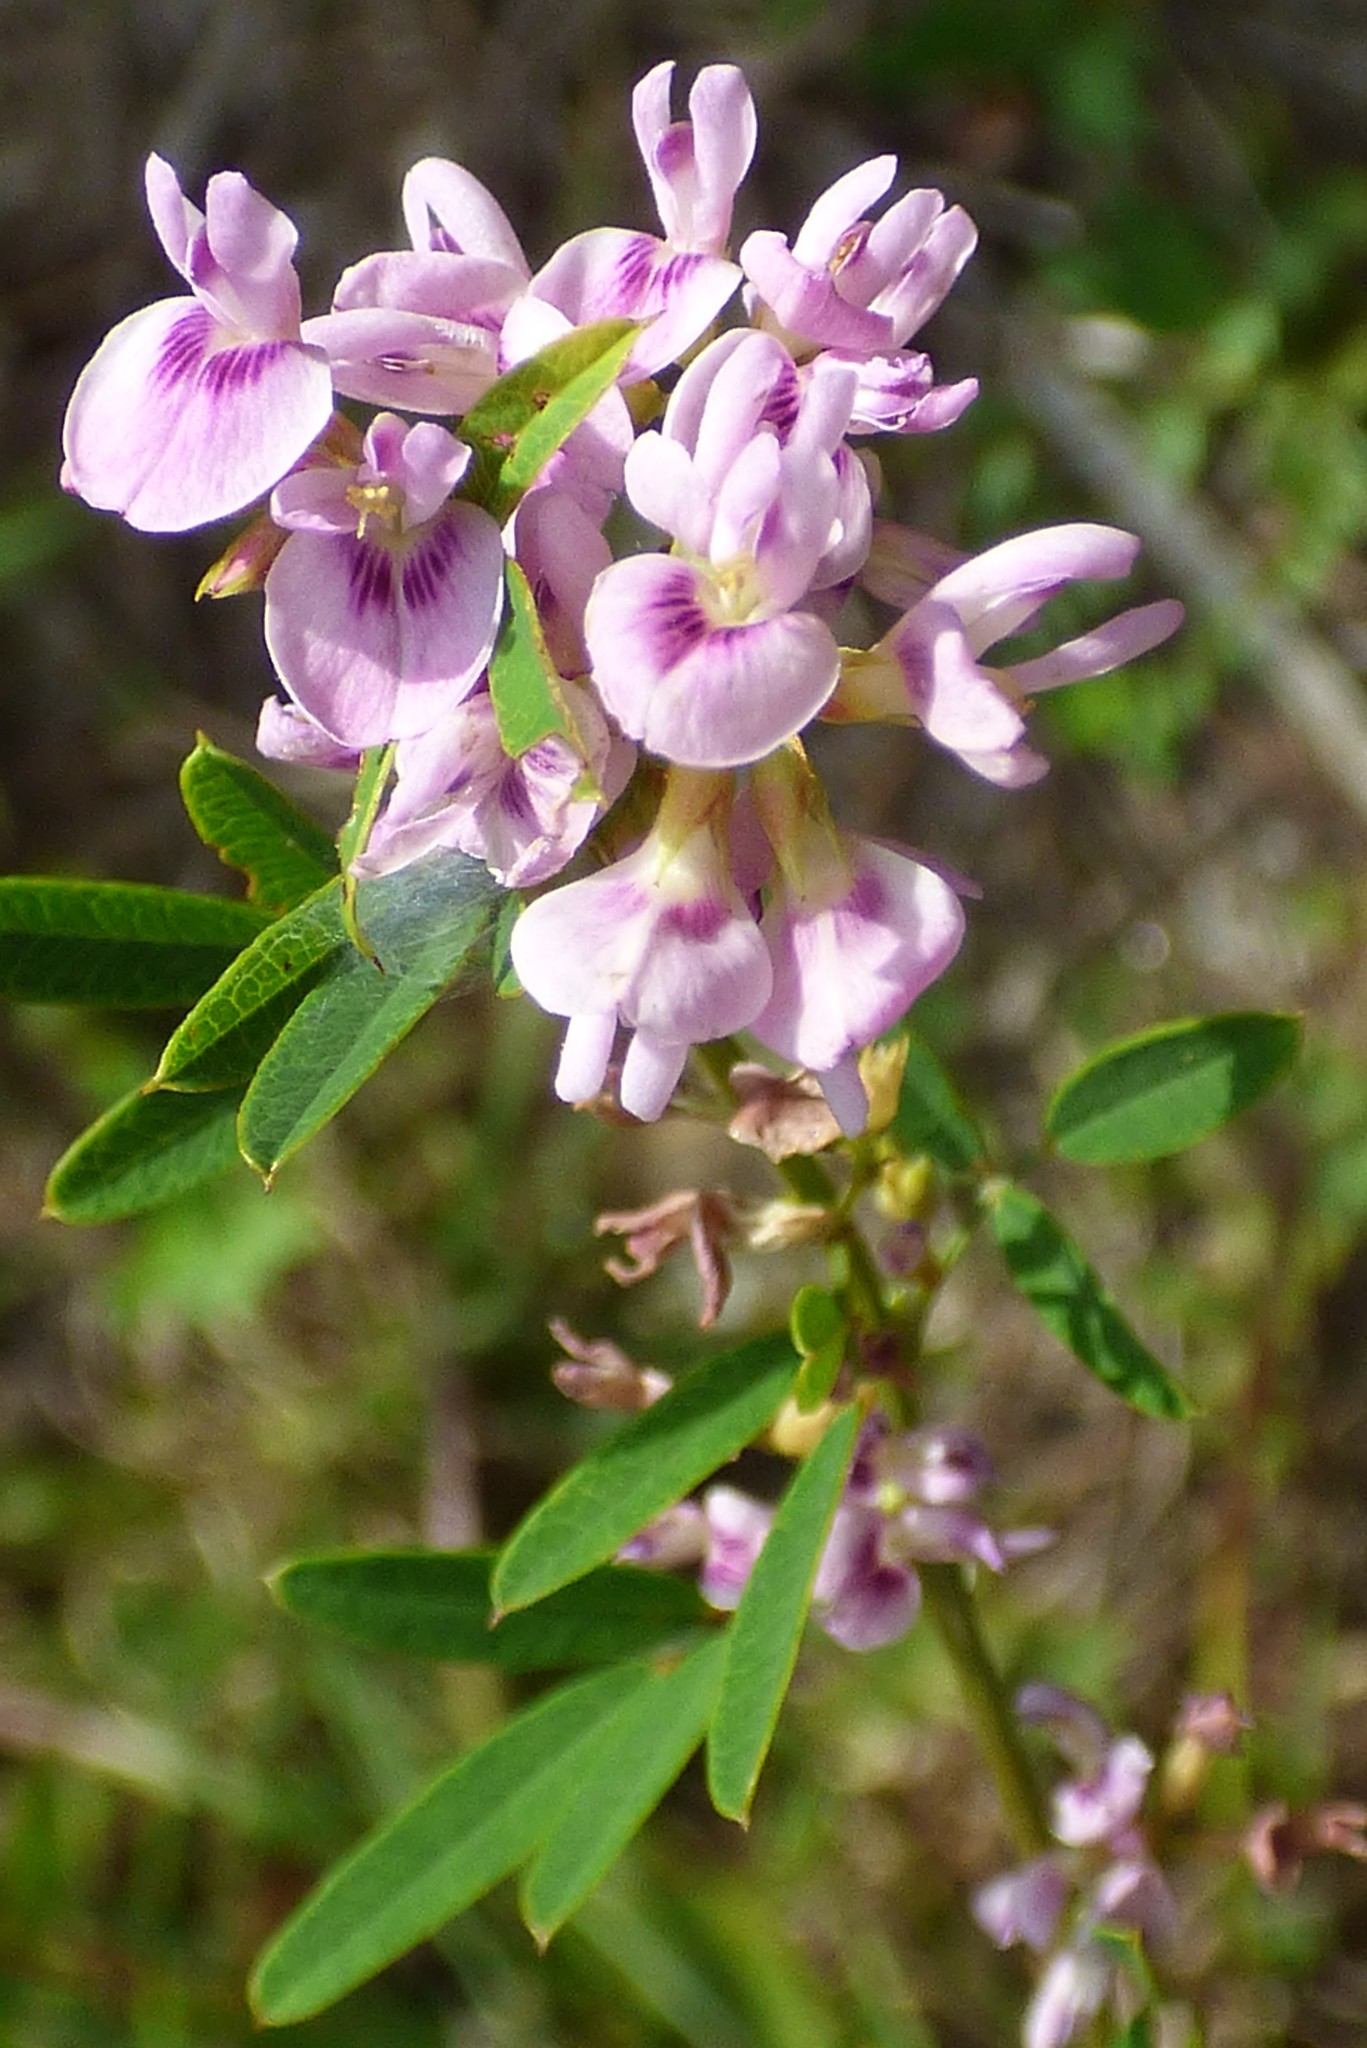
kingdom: Plantae
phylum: Tracheophyta
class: Magnoliopsida
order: Fabales
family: Fabaceae
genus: Lespedeza
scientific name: Lespedeza virginica
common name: Slender bush-clover
